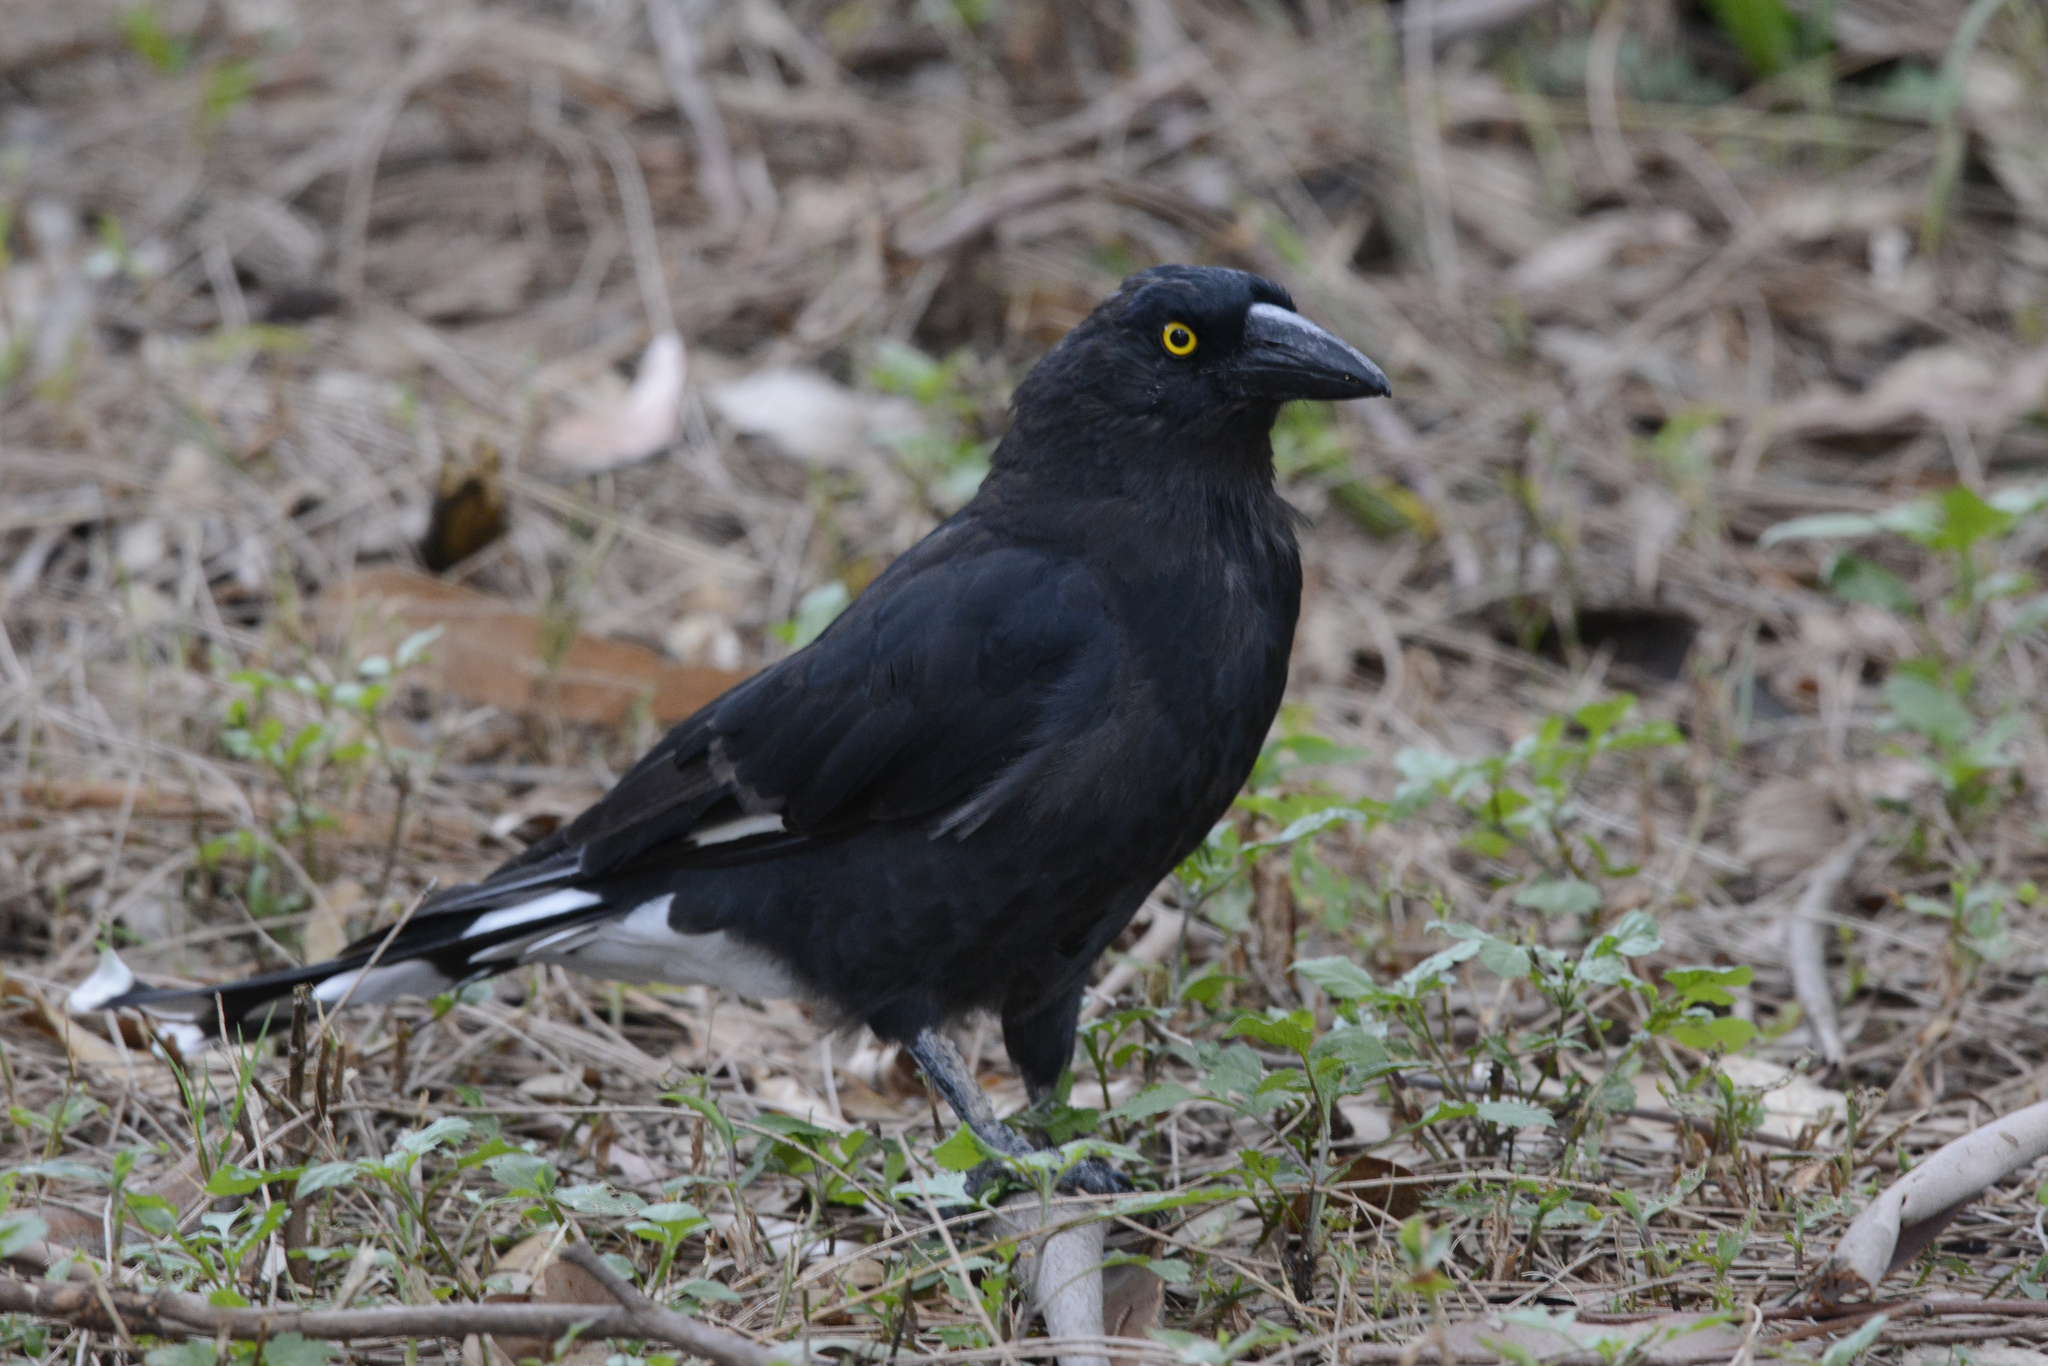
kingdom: Animalia
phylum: Chordata
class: Aves
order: Passeriformes
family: Cracticidae
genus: Strepera
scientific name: Strepera graculina
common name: Pied currawong
